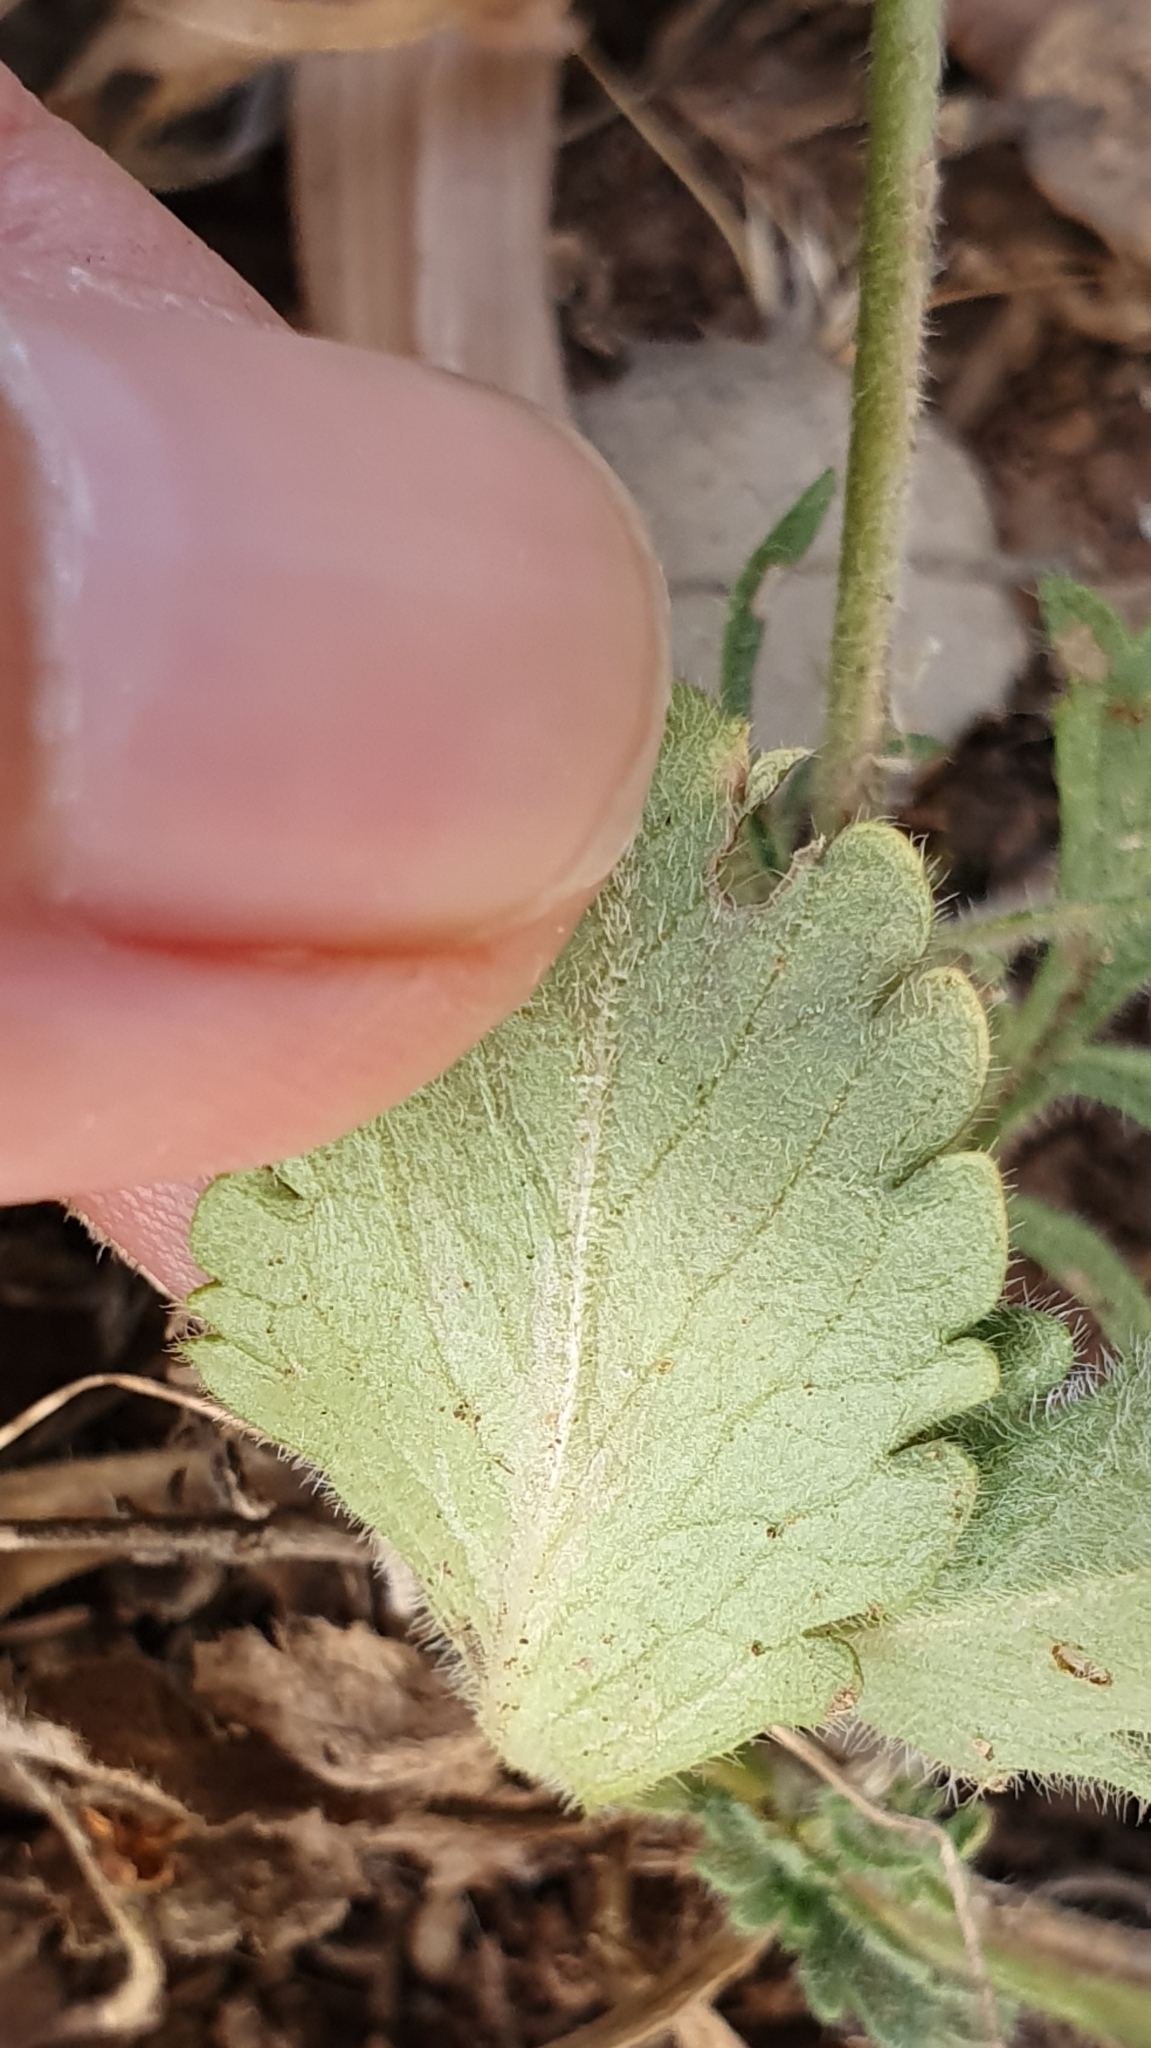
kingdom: Plantae
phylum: Tracheophyta
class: Magnoliopsida
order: Dipsacales
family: Caprifoliaceae
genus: Sixalix
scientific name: Sixalix maritima
